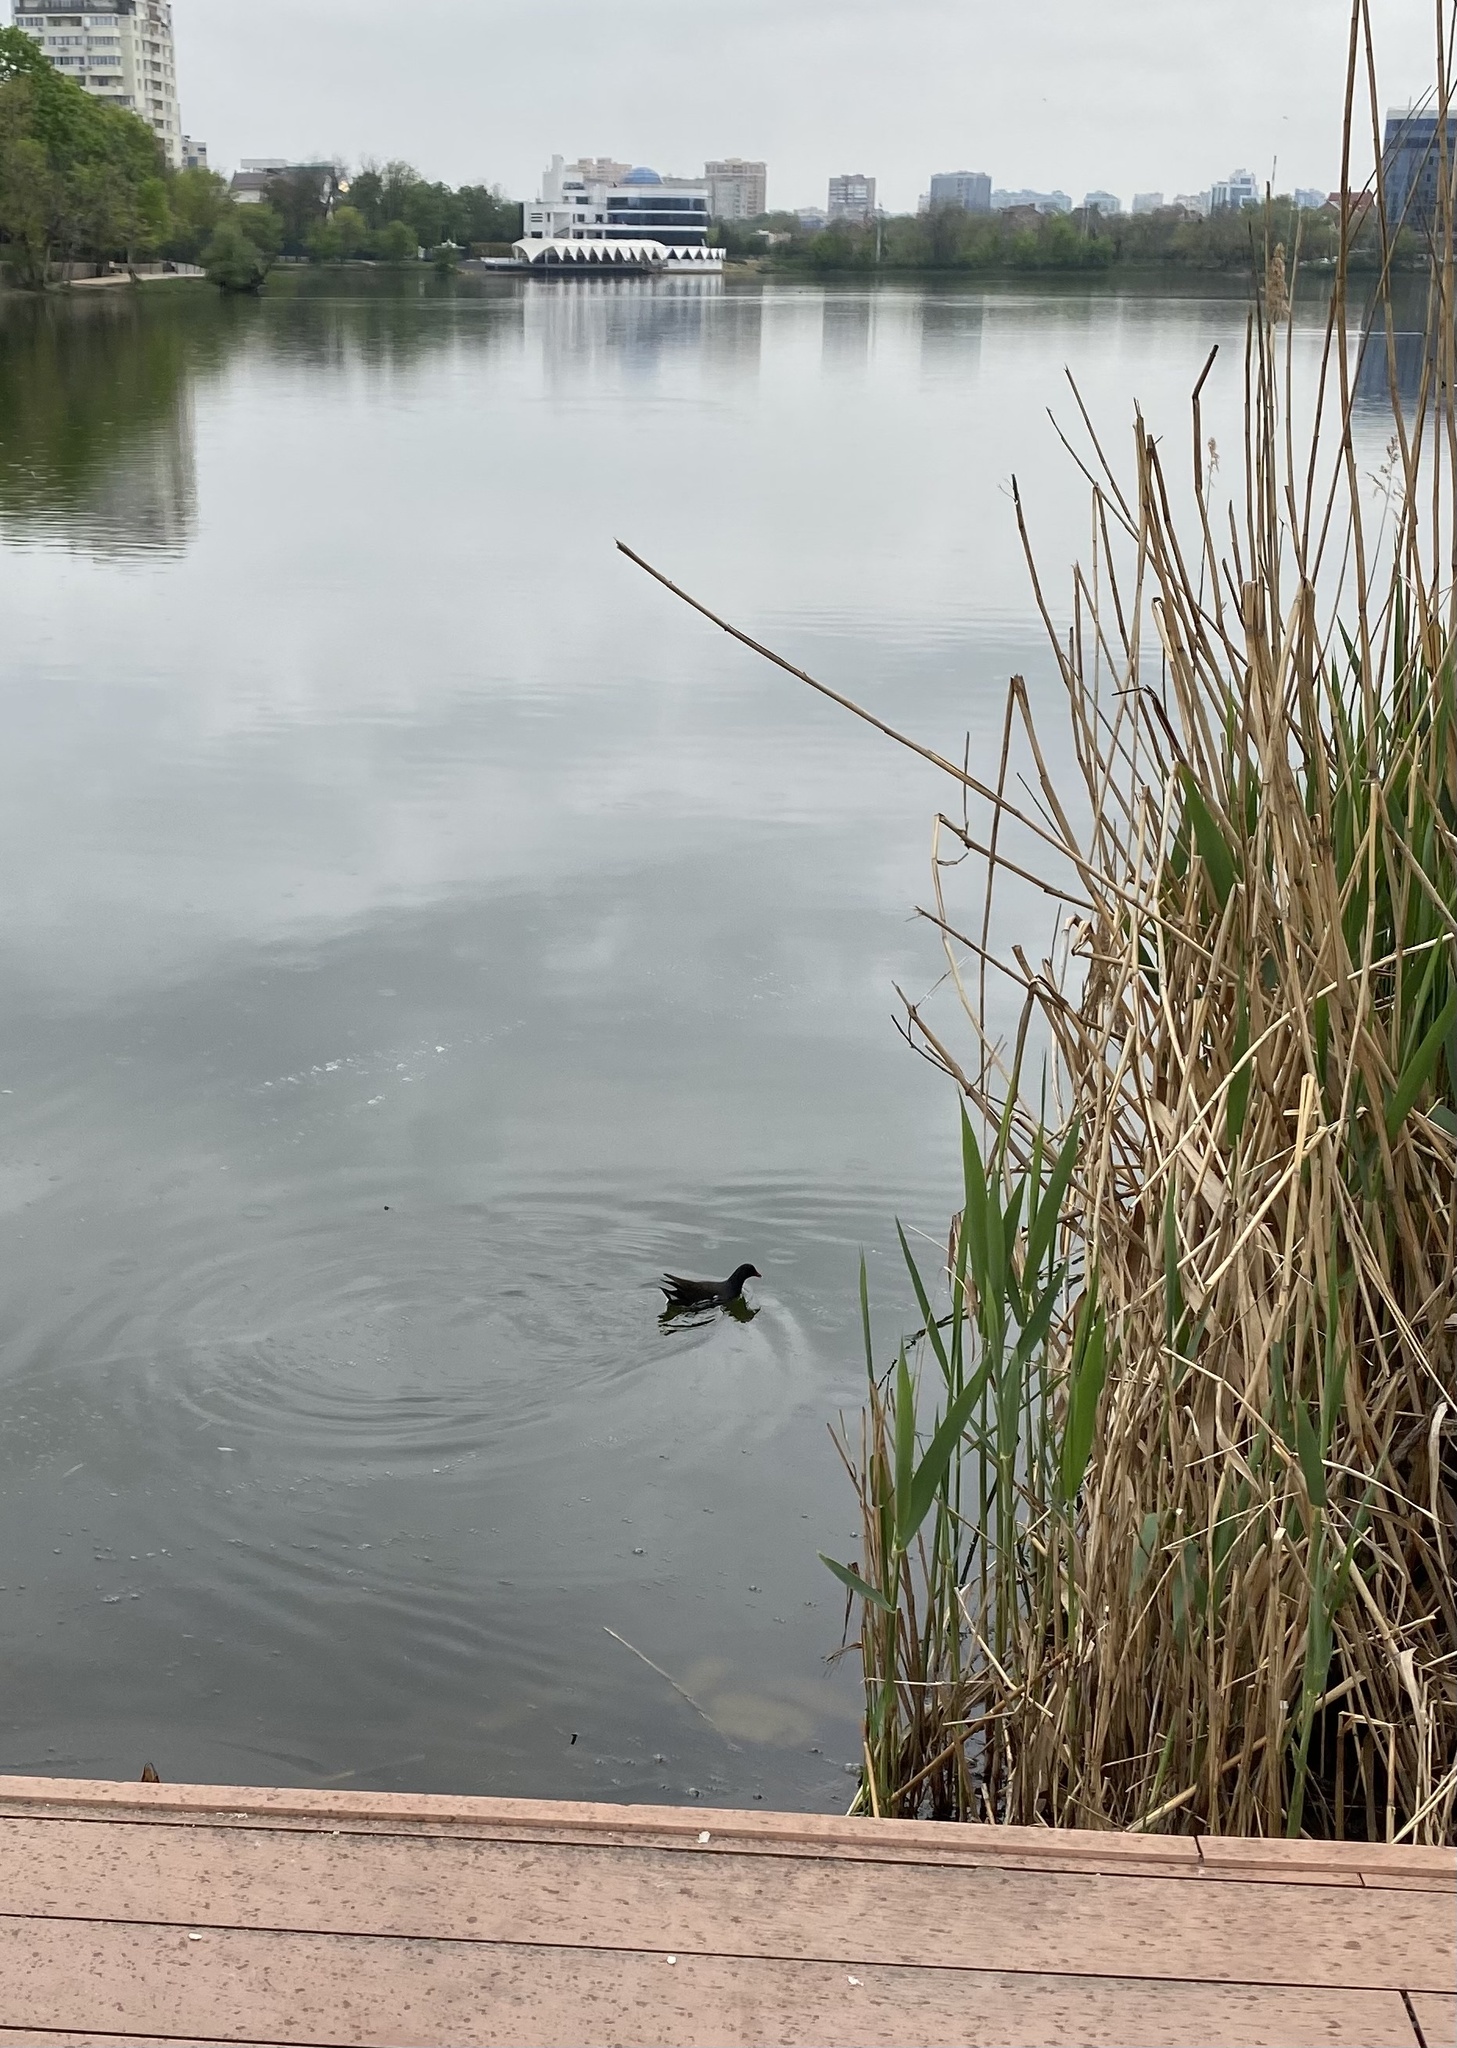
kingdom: Animalia
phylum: Chordata
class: Aves
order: Gruiformes
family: Rallidae
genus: Gallinula
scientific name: Gallinula chloropus
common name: Common moorhen
